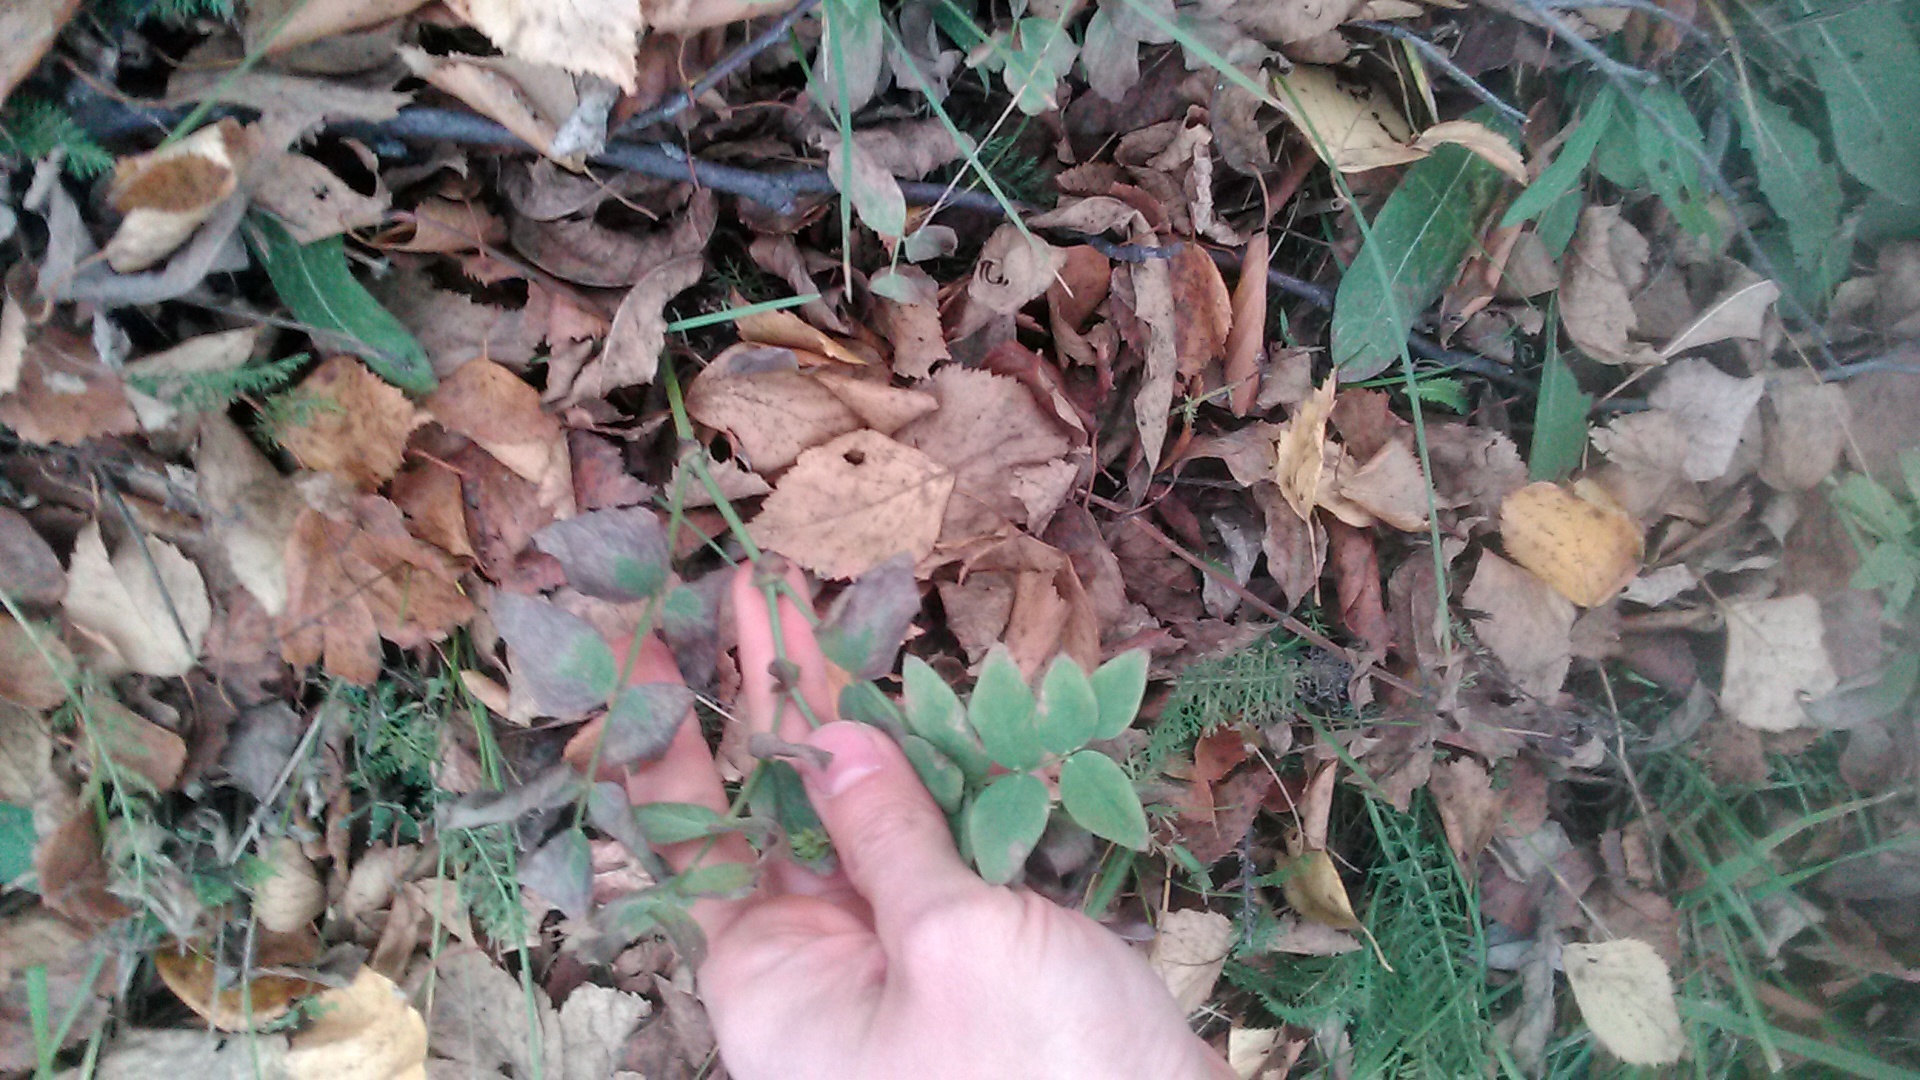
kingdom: Plantae
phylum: Tracheophyta
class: Magnoliopsida
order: Fabales
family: Fabaceae
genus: Galega
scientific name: Galega orientalis
